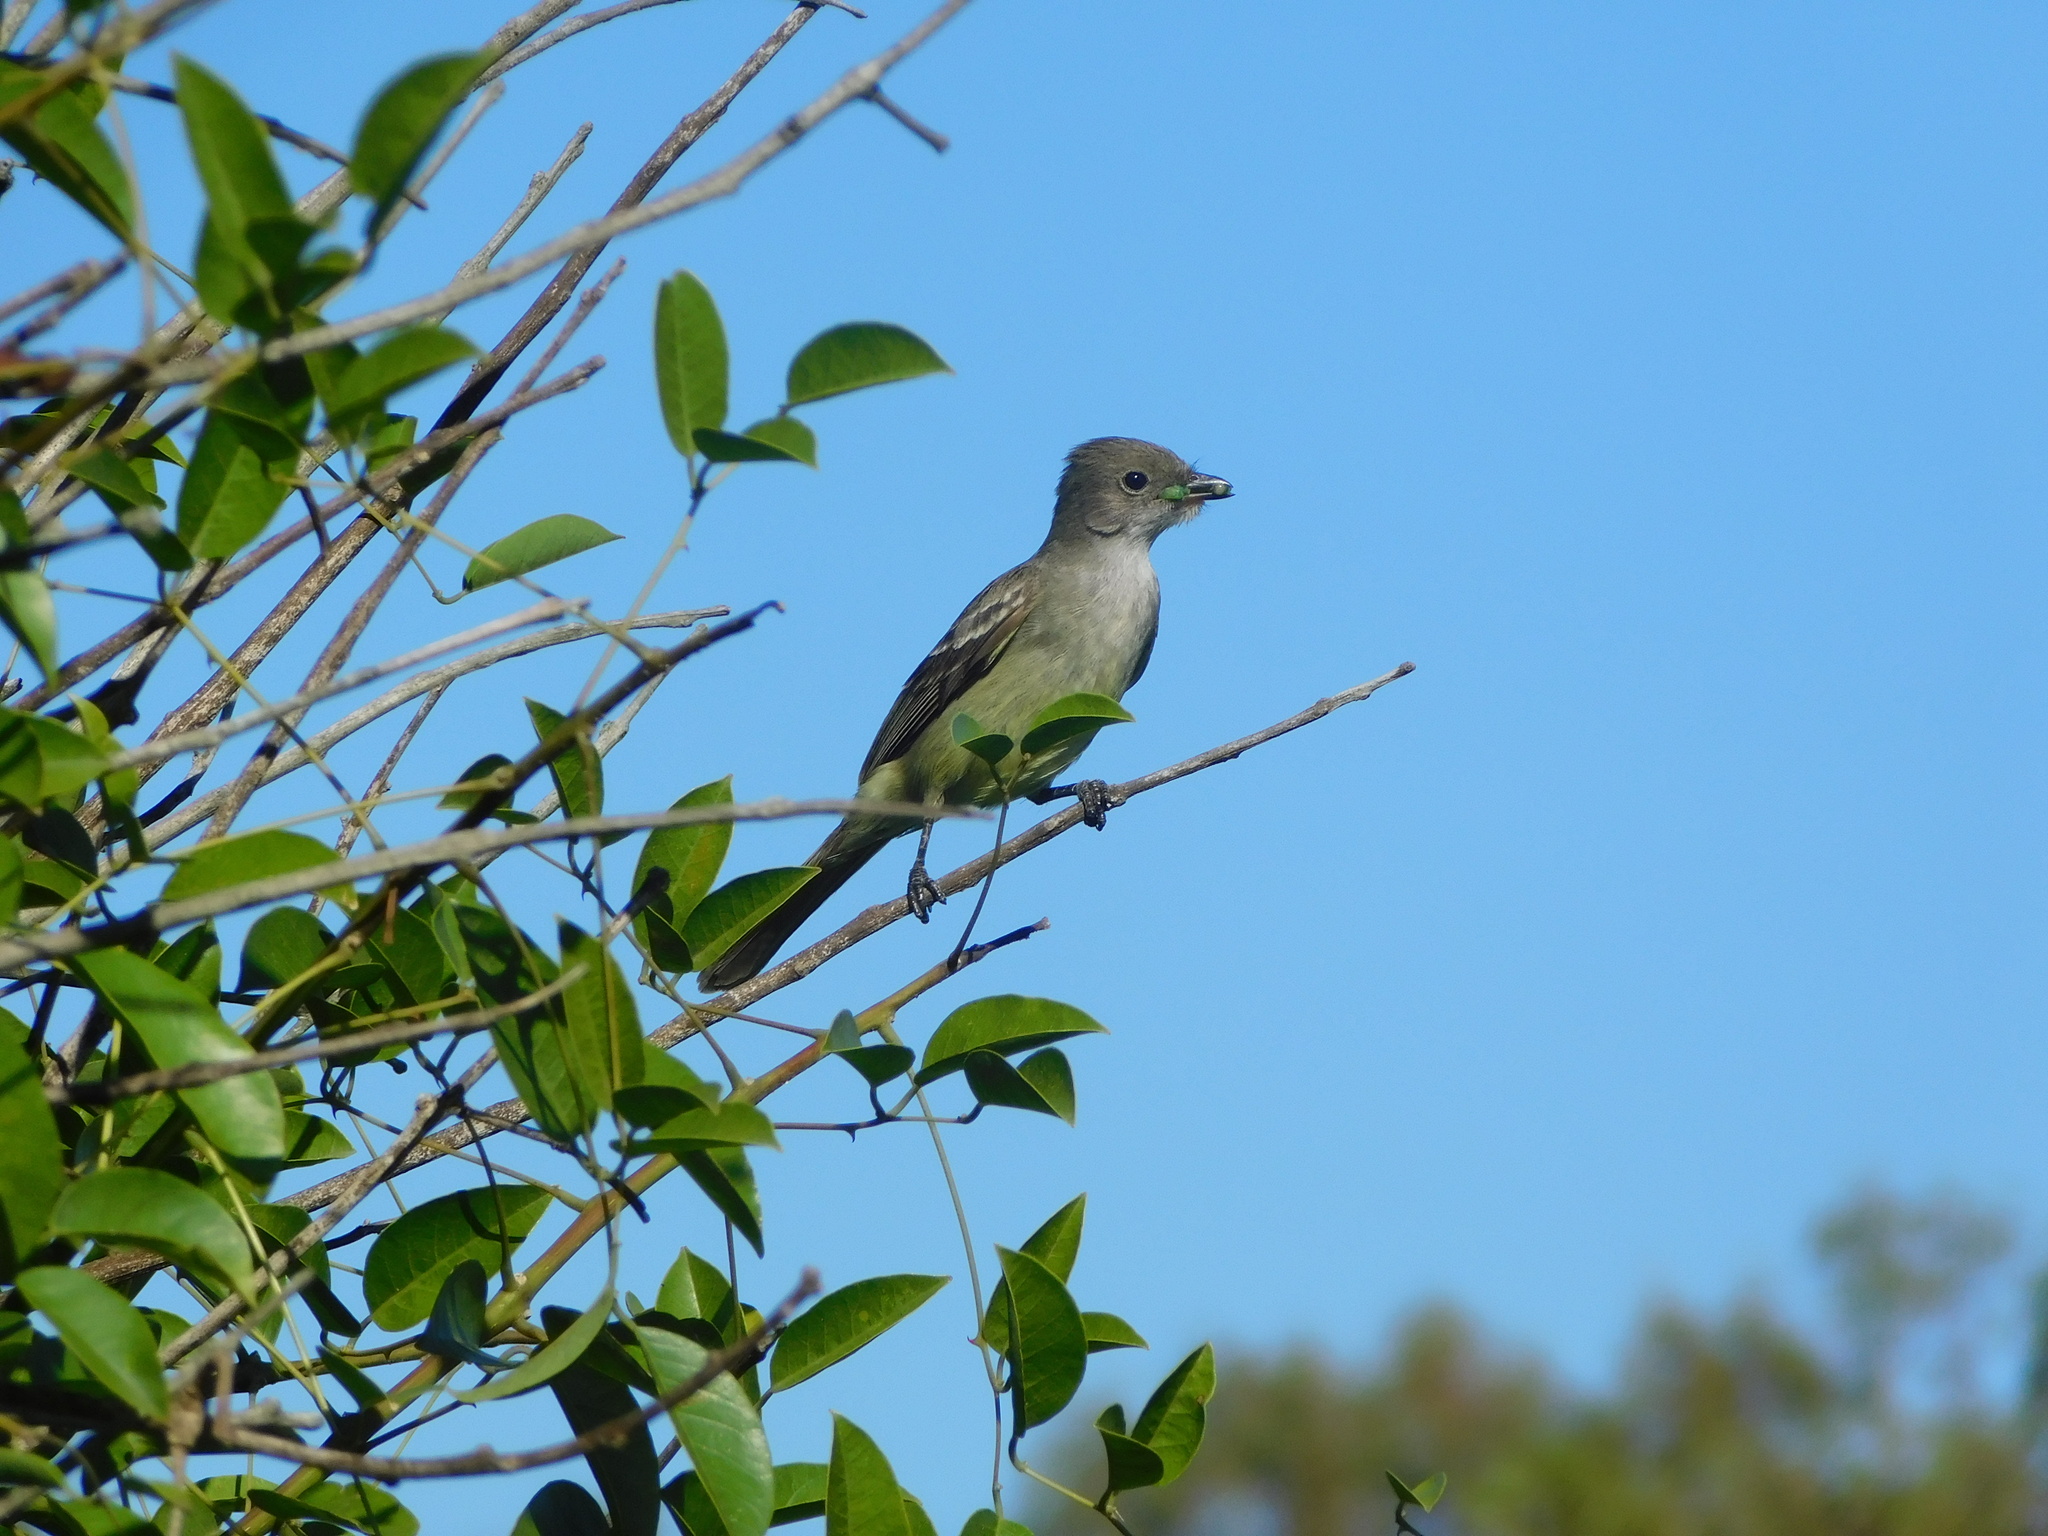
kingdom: Animalia
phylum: Chordata
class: Aves
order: Passeriformes
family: Tyrannidae
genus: Elaenia
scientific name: Elaenia spectabilis
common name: Large elaenia
